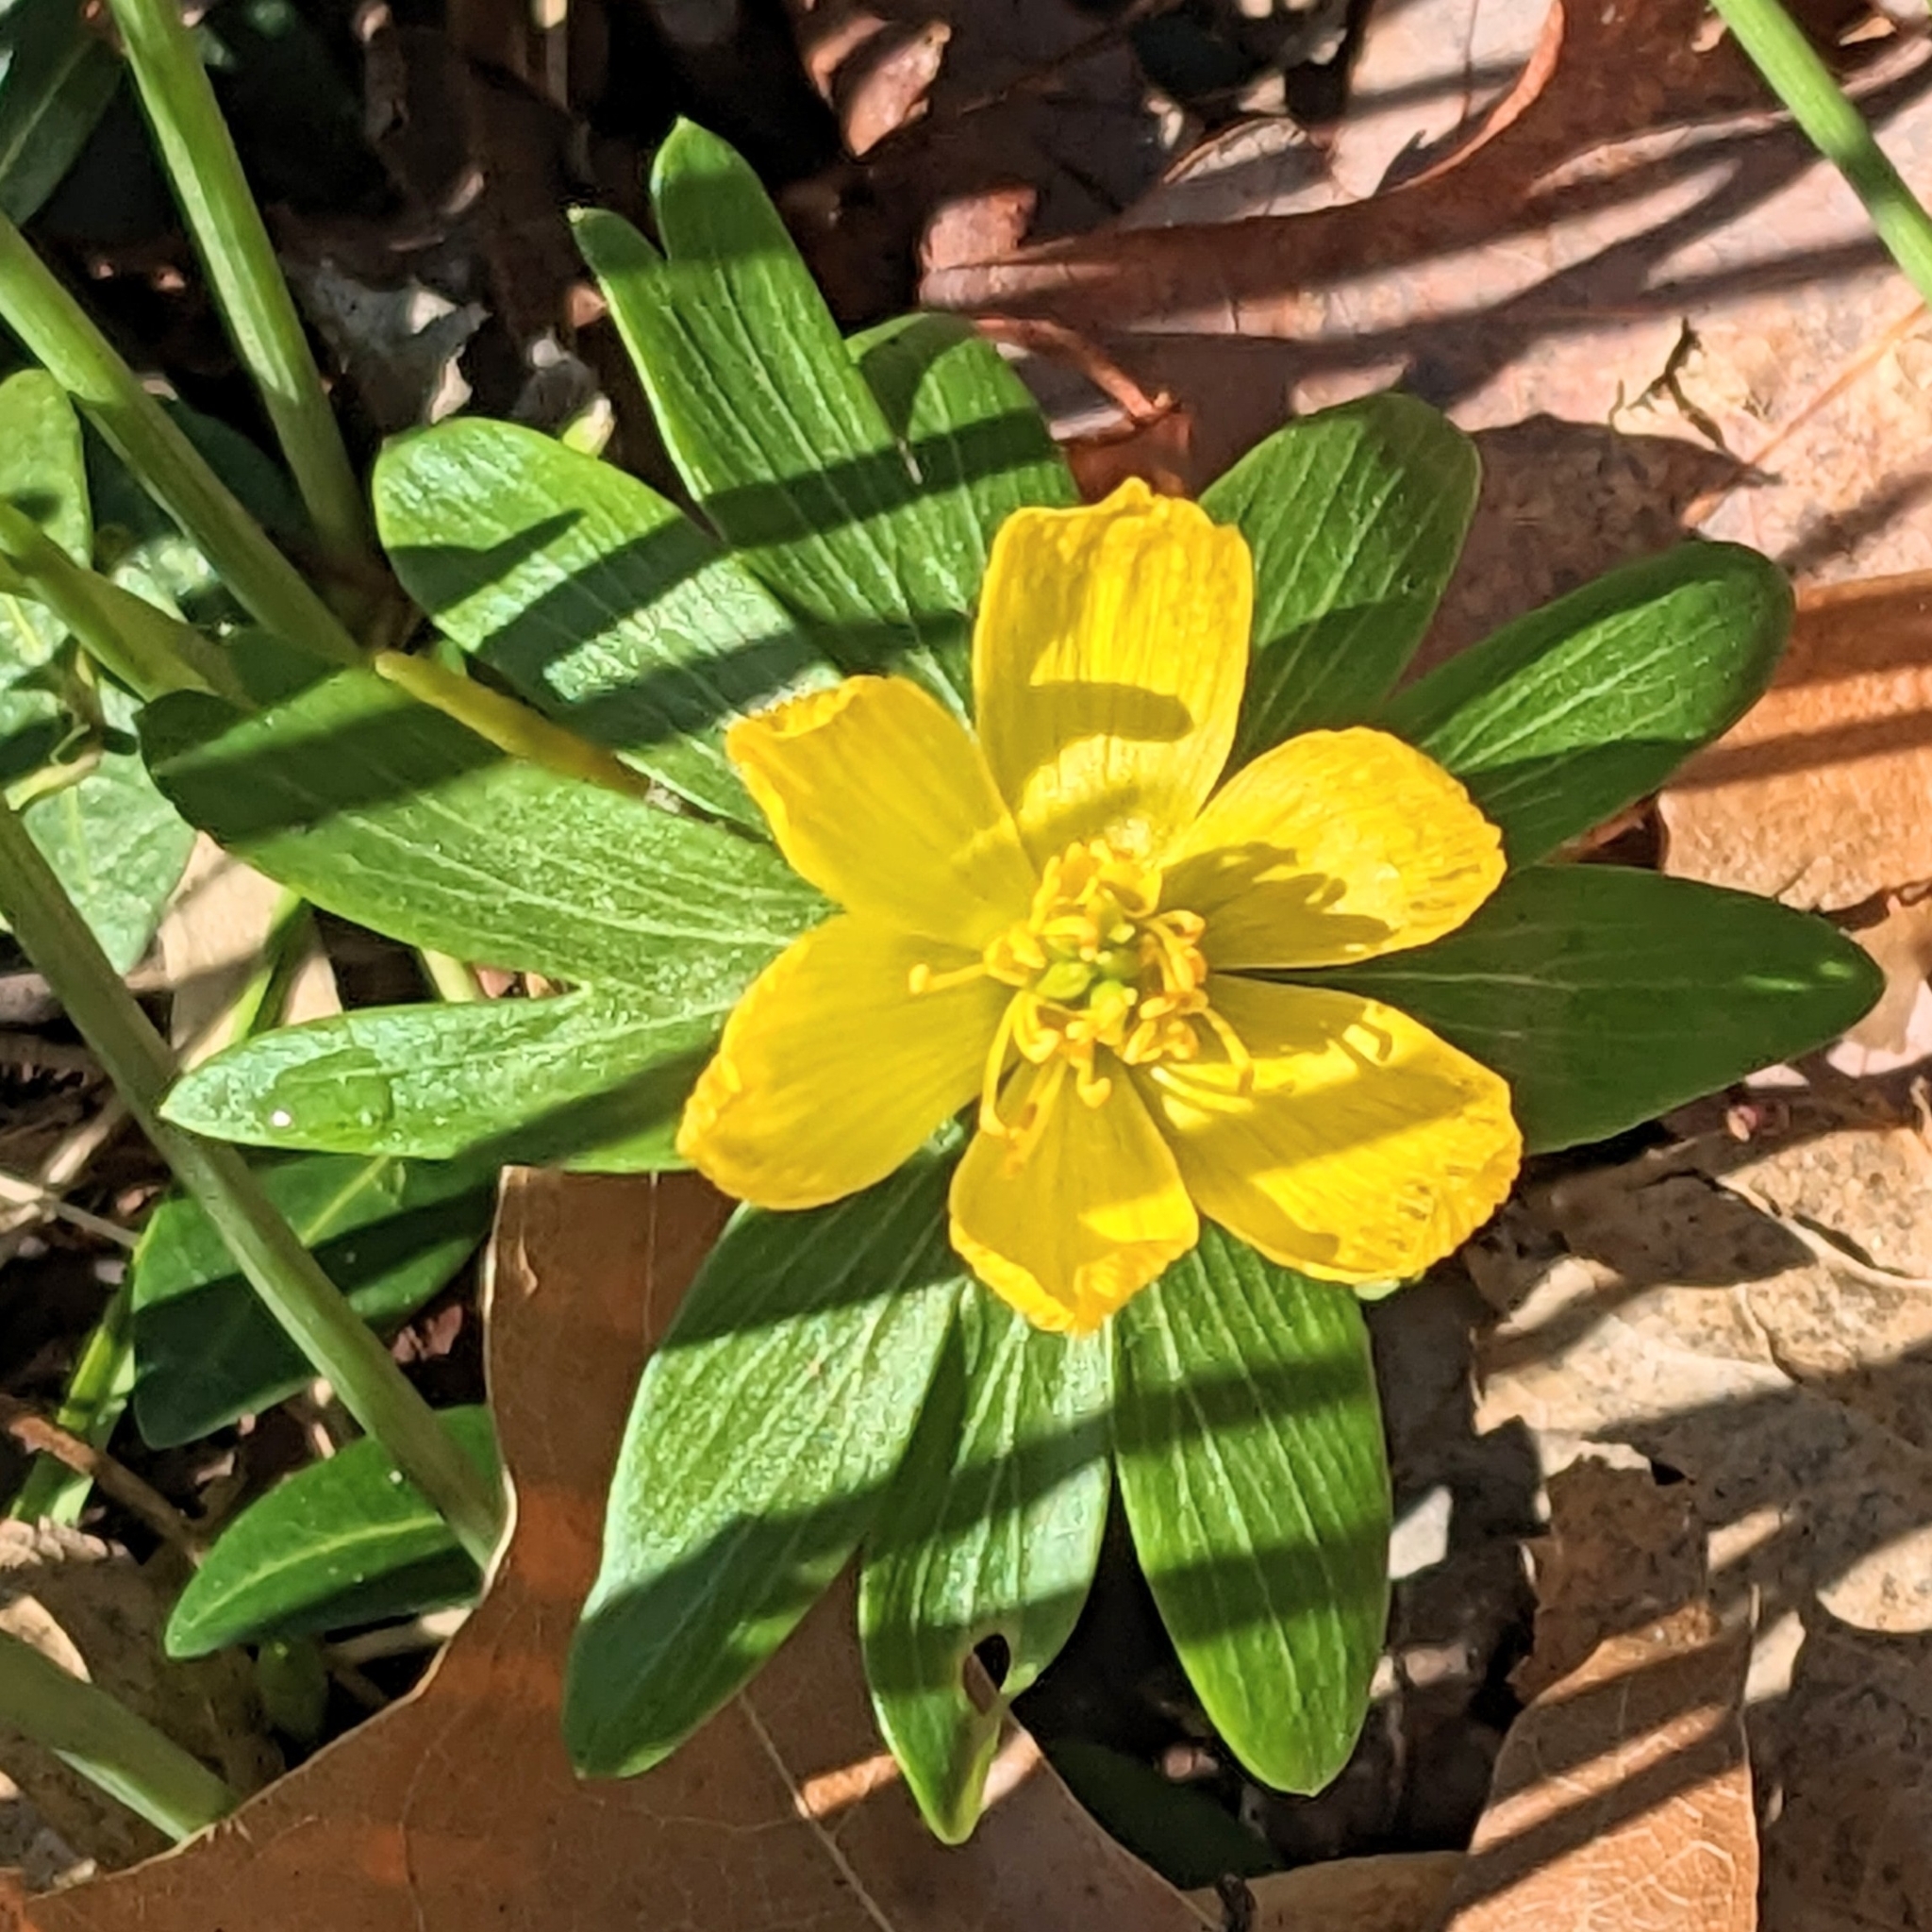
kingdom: Plantae
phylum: Tracheophyta
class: Magnoliopsida
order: Ranunculales
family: Ranunculaceae
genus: Eranthis
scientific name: Eranthis hyemalis
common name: Winter aconite
